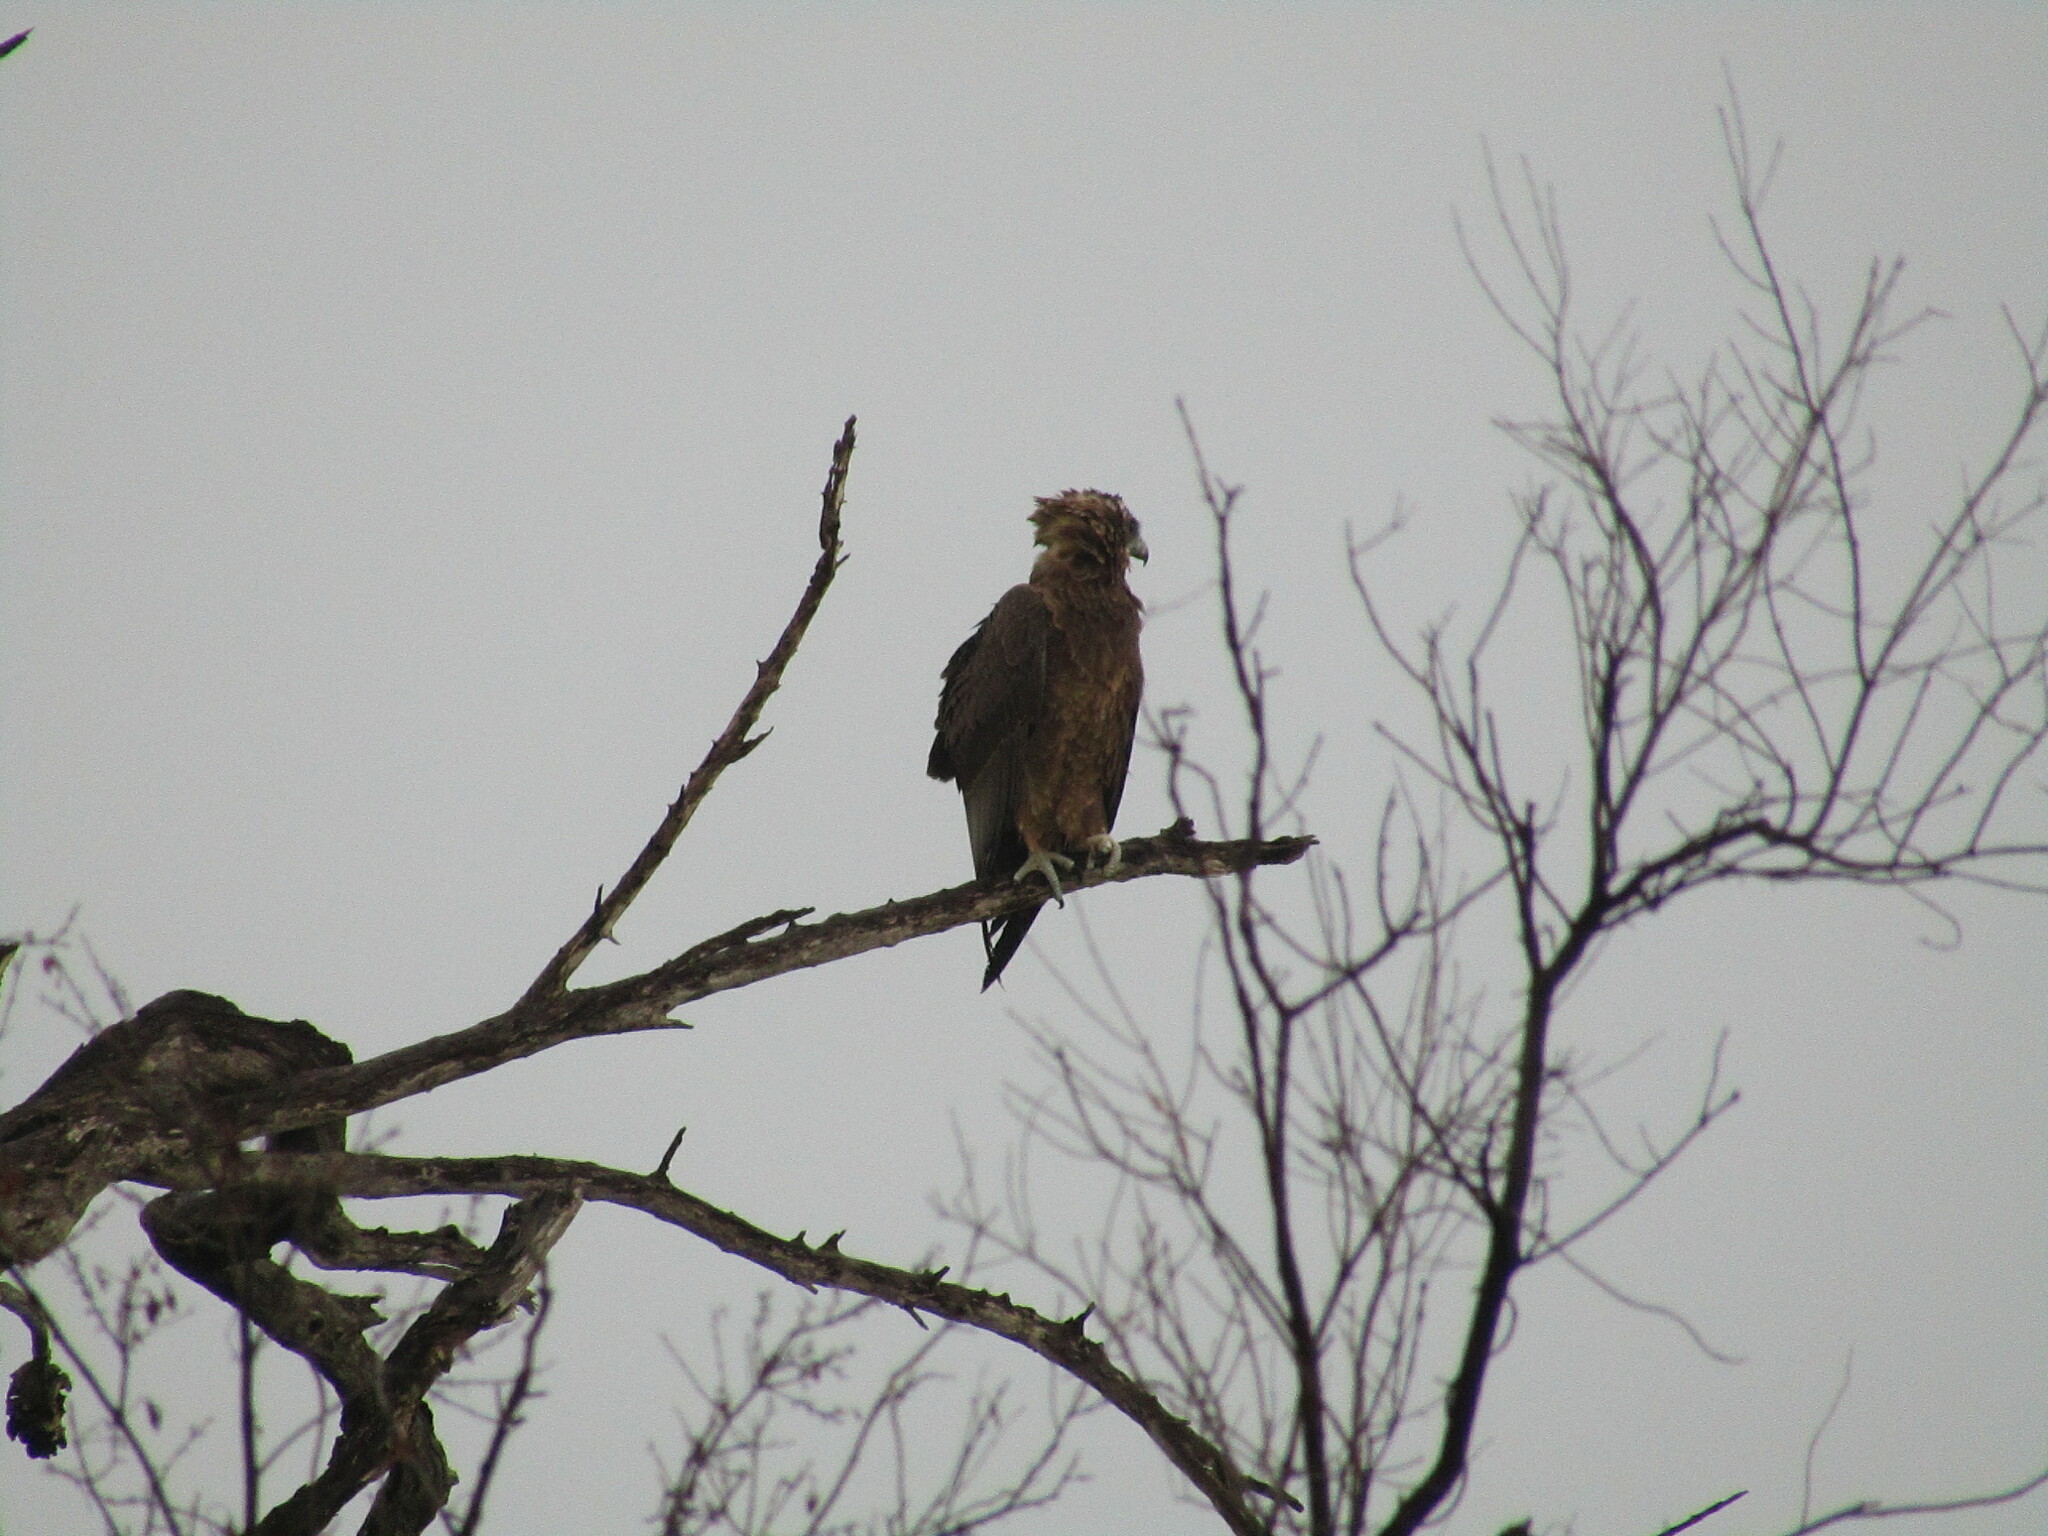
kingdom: Animalia
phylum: Chordata
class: Aves
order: Accipitriformes
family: Accipitridae
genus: Terathopius
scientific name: Terathopius ecaudatus
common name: Bateleur
